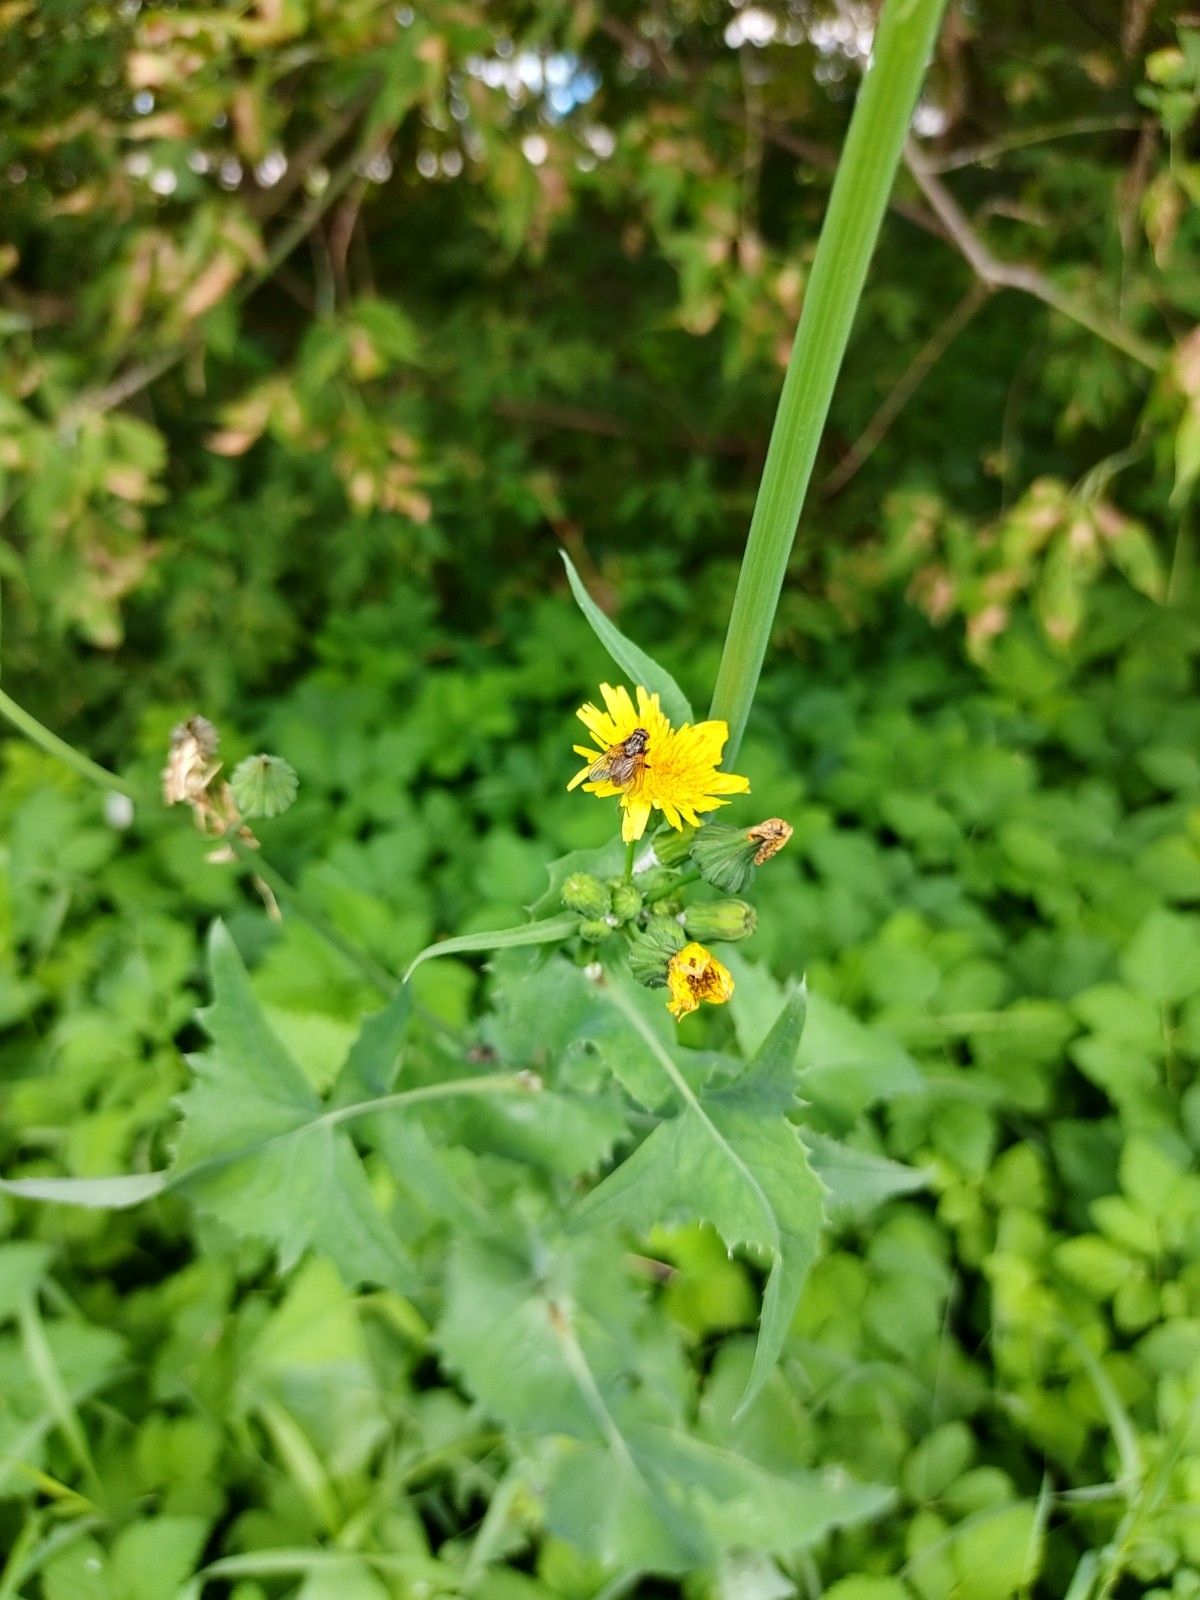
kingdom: Plantae
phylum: Tracheophyta
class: Magnoliopsida
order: Asterales
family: Asteraceae
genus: Sonchus
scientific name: Sonchus oleraceus
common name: Common sowthistle
